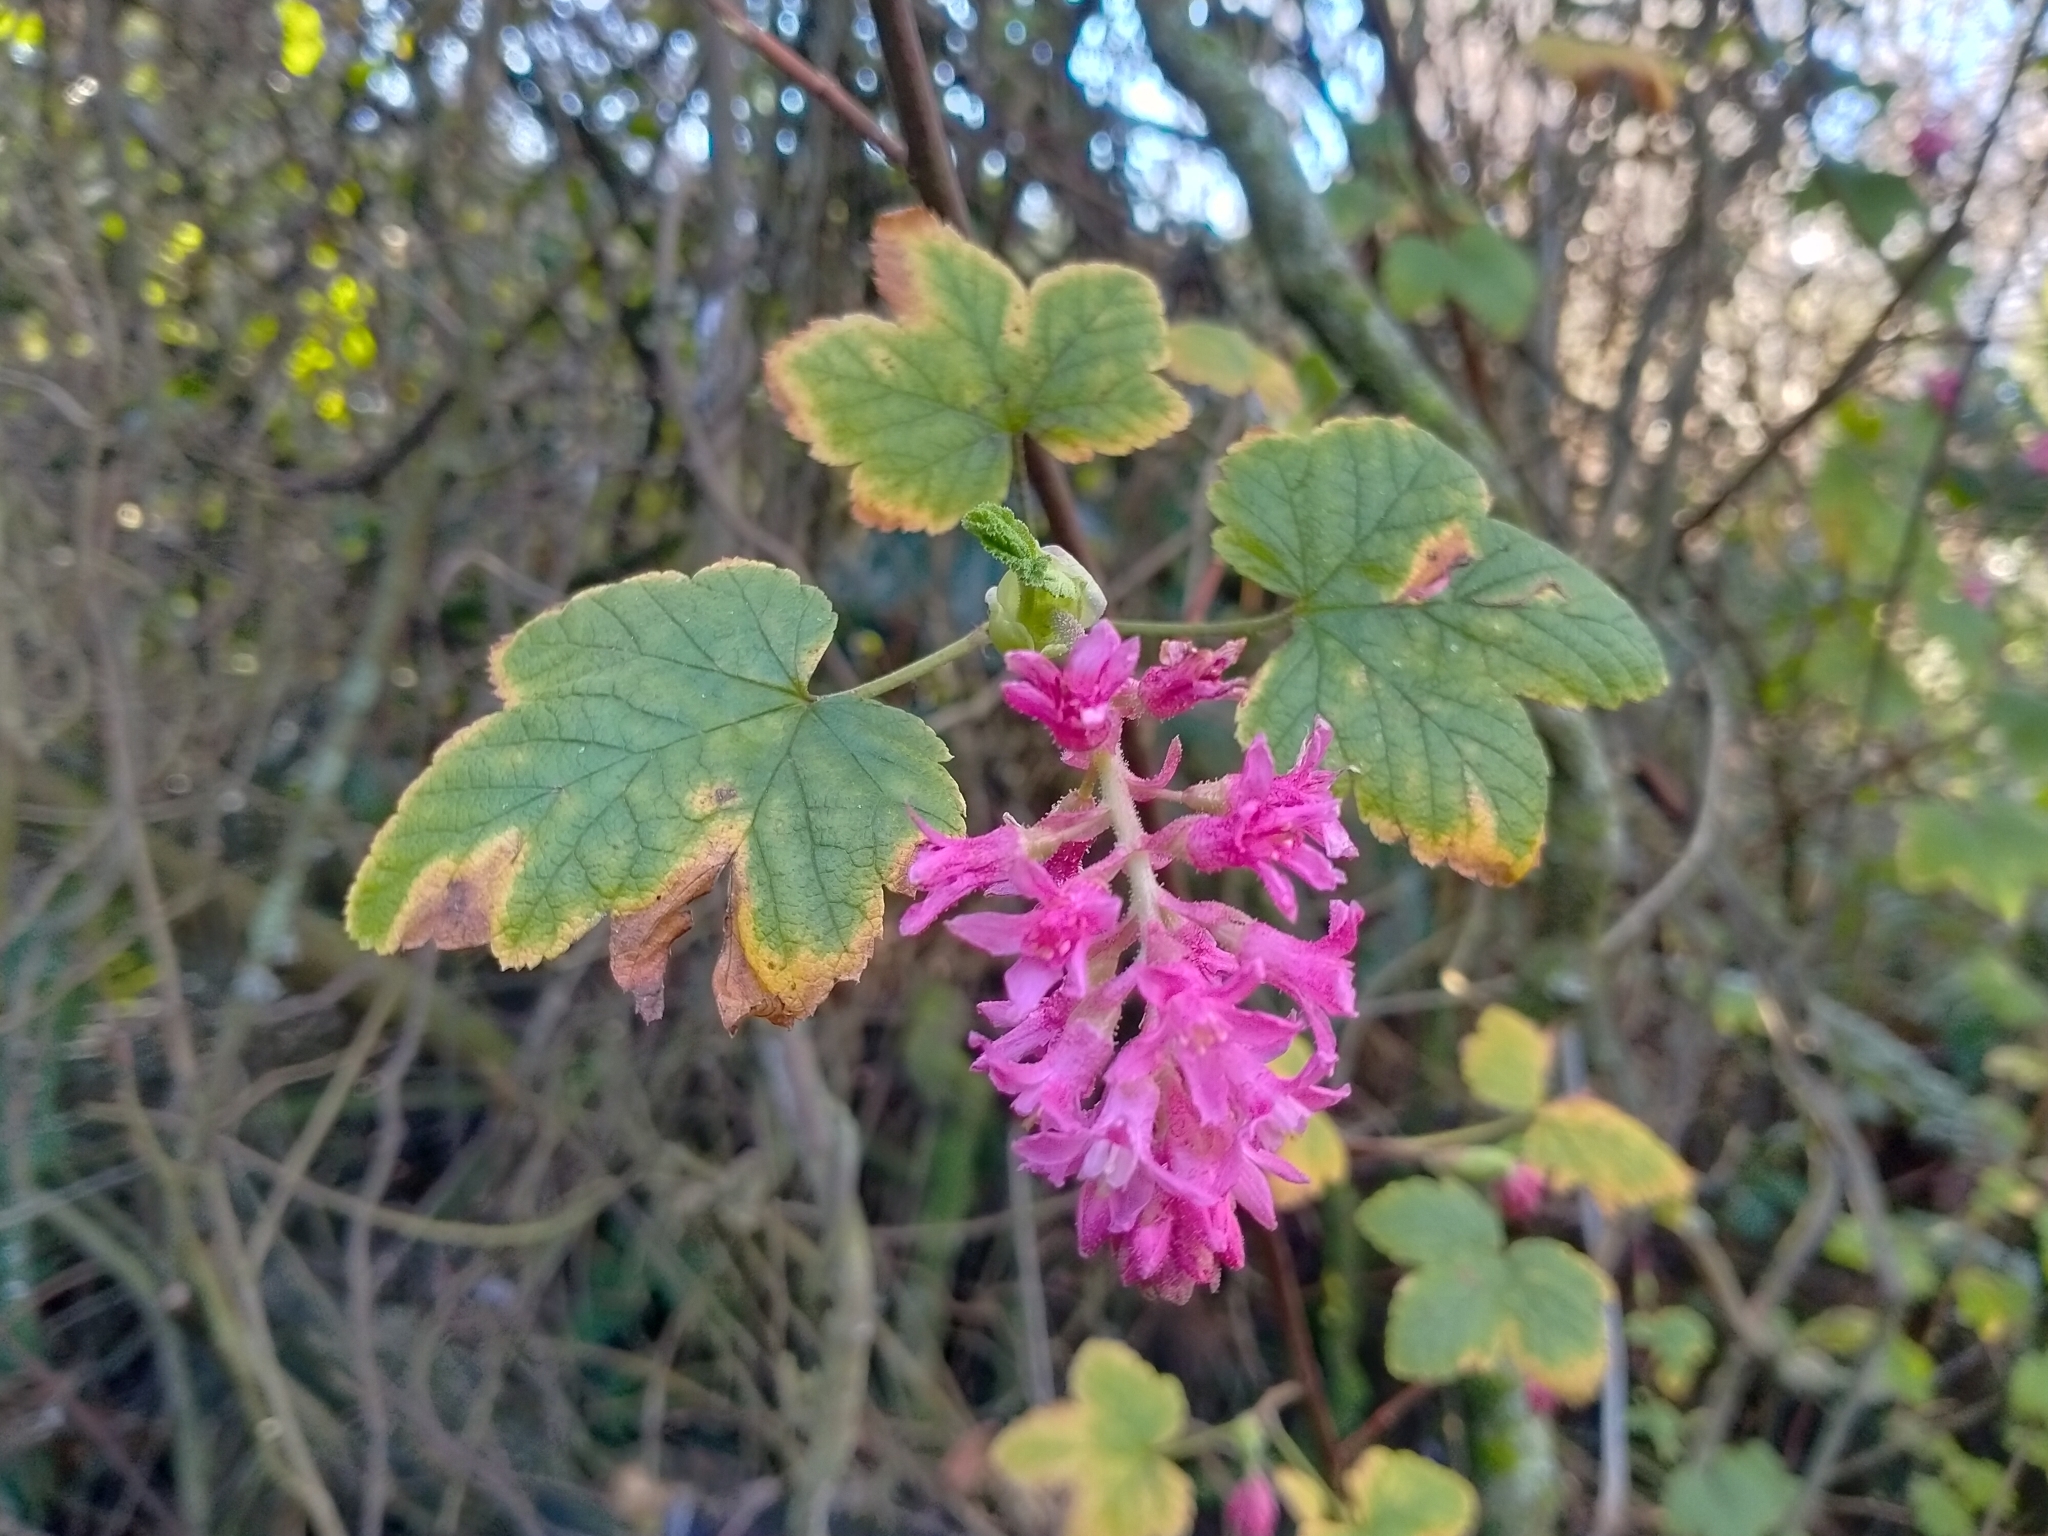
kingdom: Plantae
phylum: Tracheophyta
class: Magnoliopsida
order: Saxifragales
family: Grossulariaceae
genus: Ribes
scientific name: Ribes sanguineum
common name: Flowering currant
